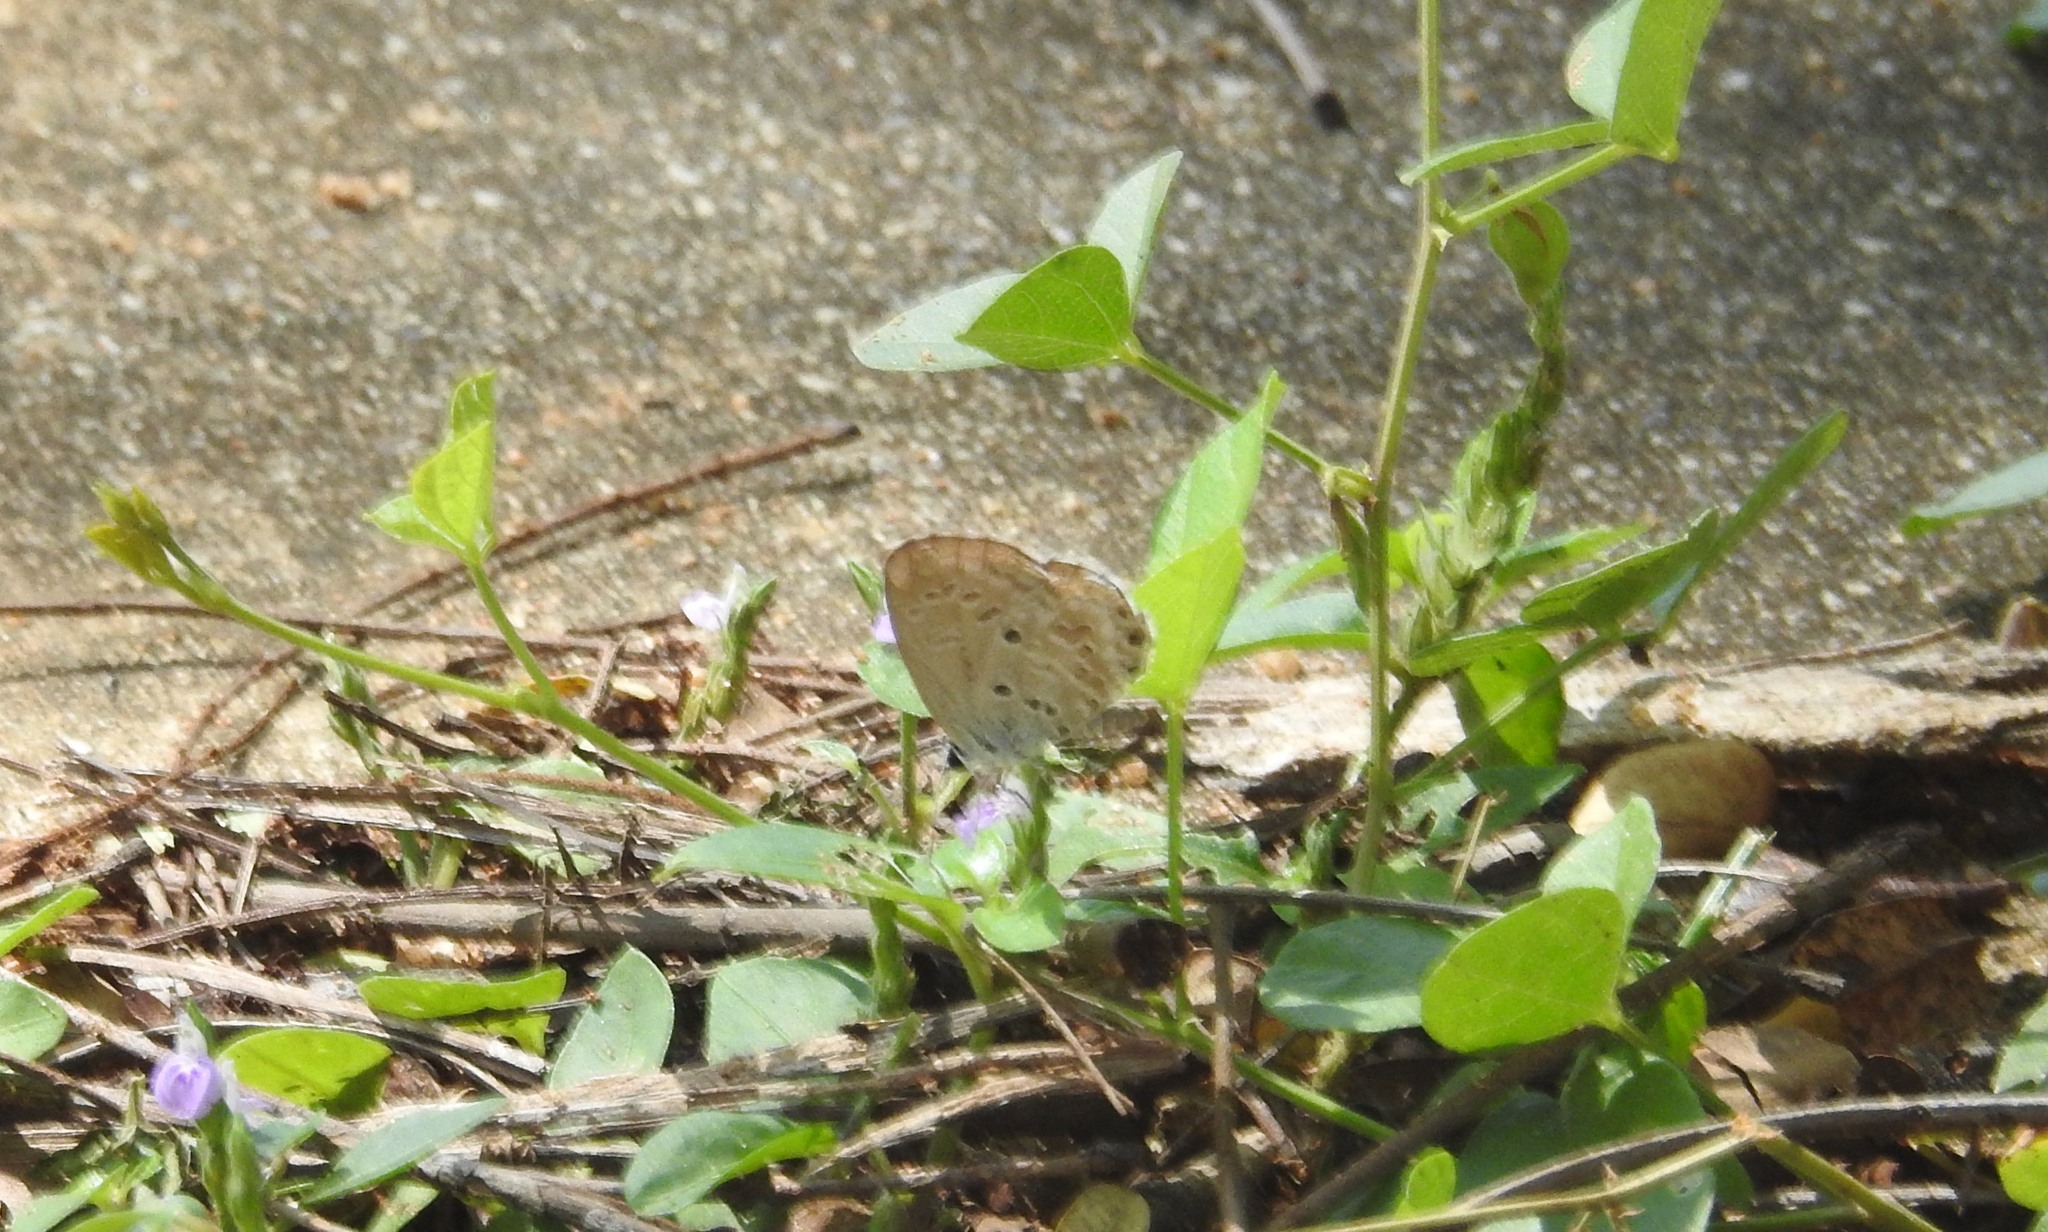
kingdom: Animalia
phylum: Arthropoda
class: Insecta
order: Lepidoptera
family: Lycaenidae
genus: Chilades
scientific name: Chilades laius
